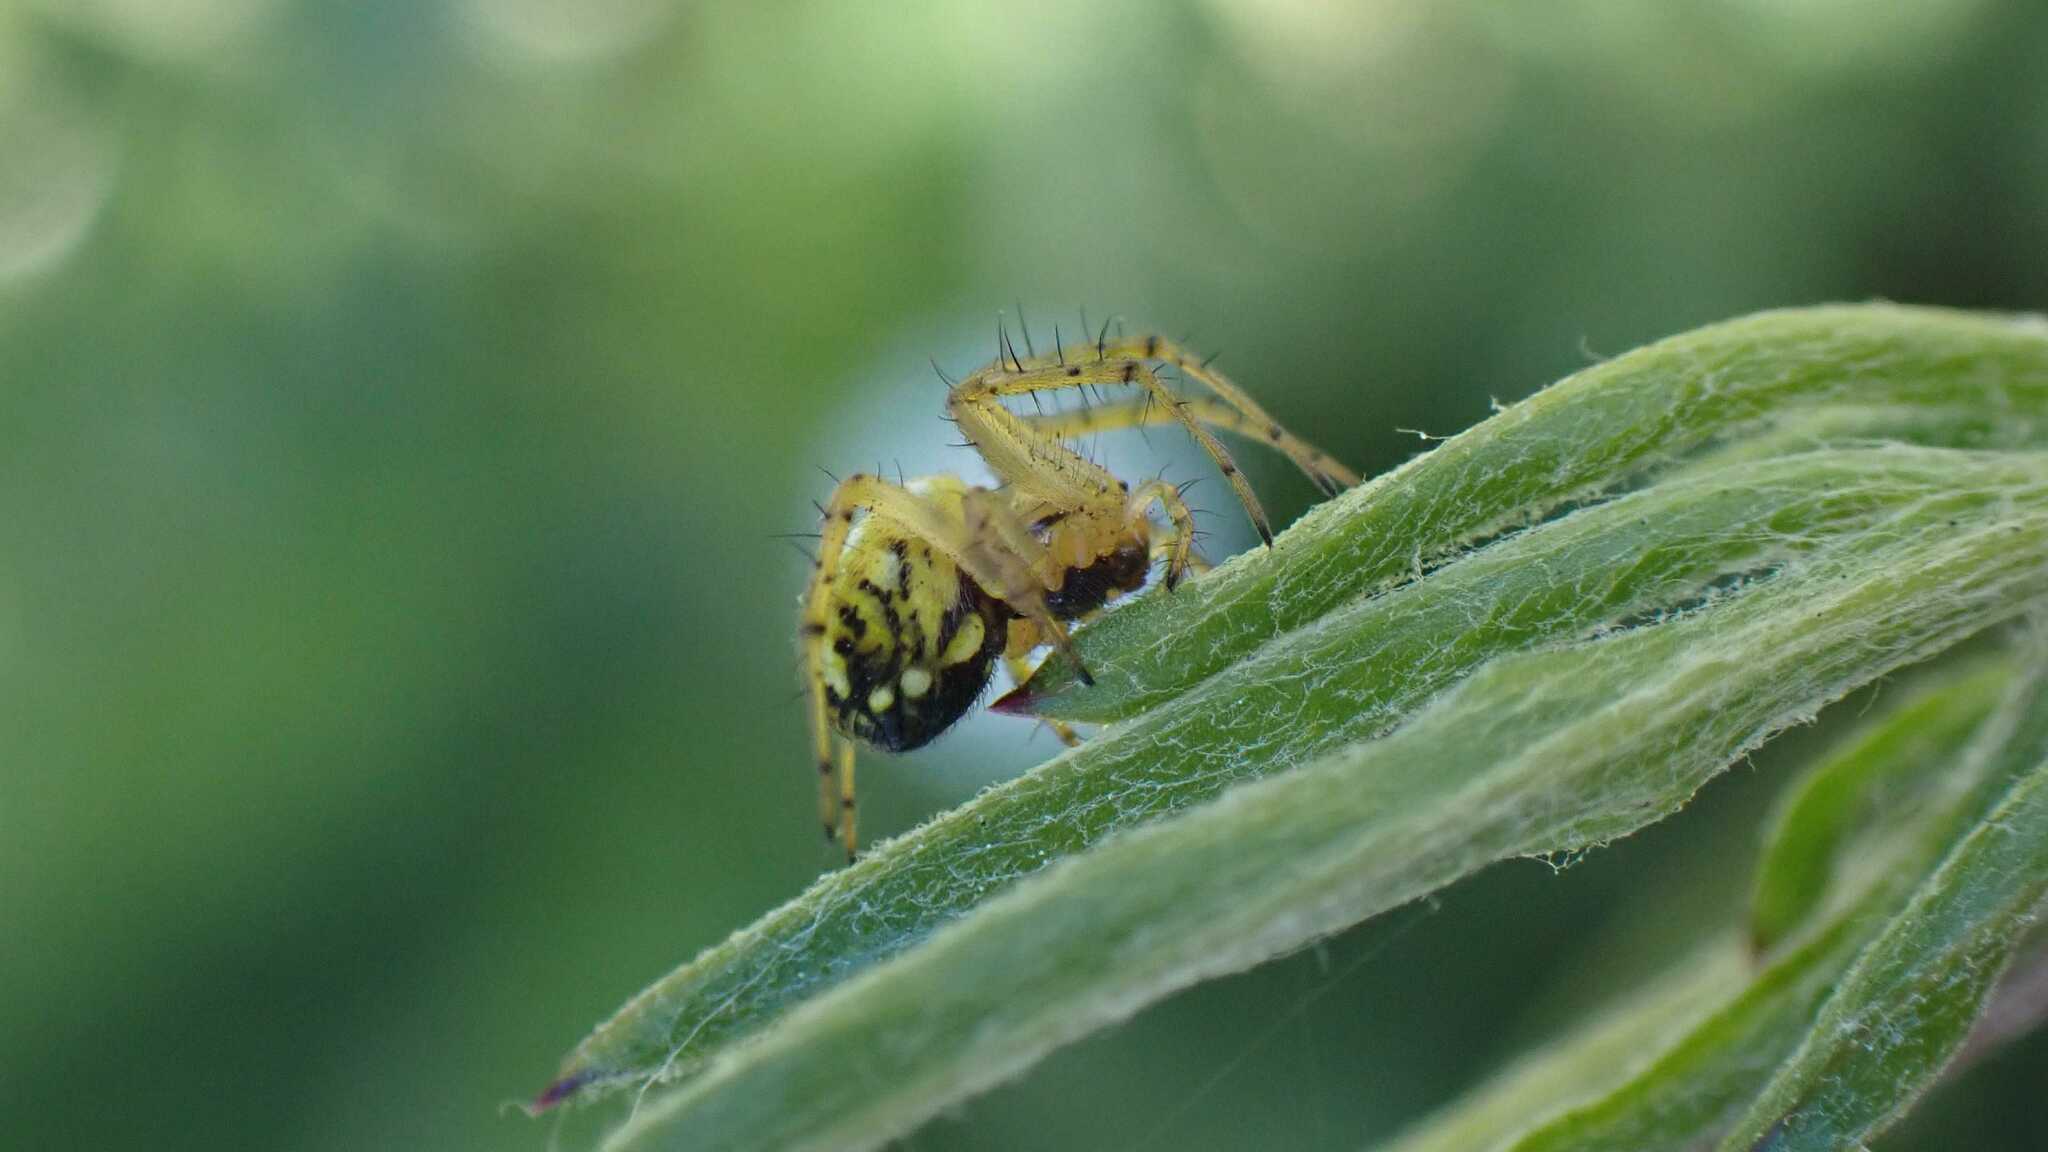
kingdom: Animalia
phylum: Arthropoda
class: Arachnida
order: Araneae
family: Araneidae
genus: Mangora
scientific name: Mangora acalypha
